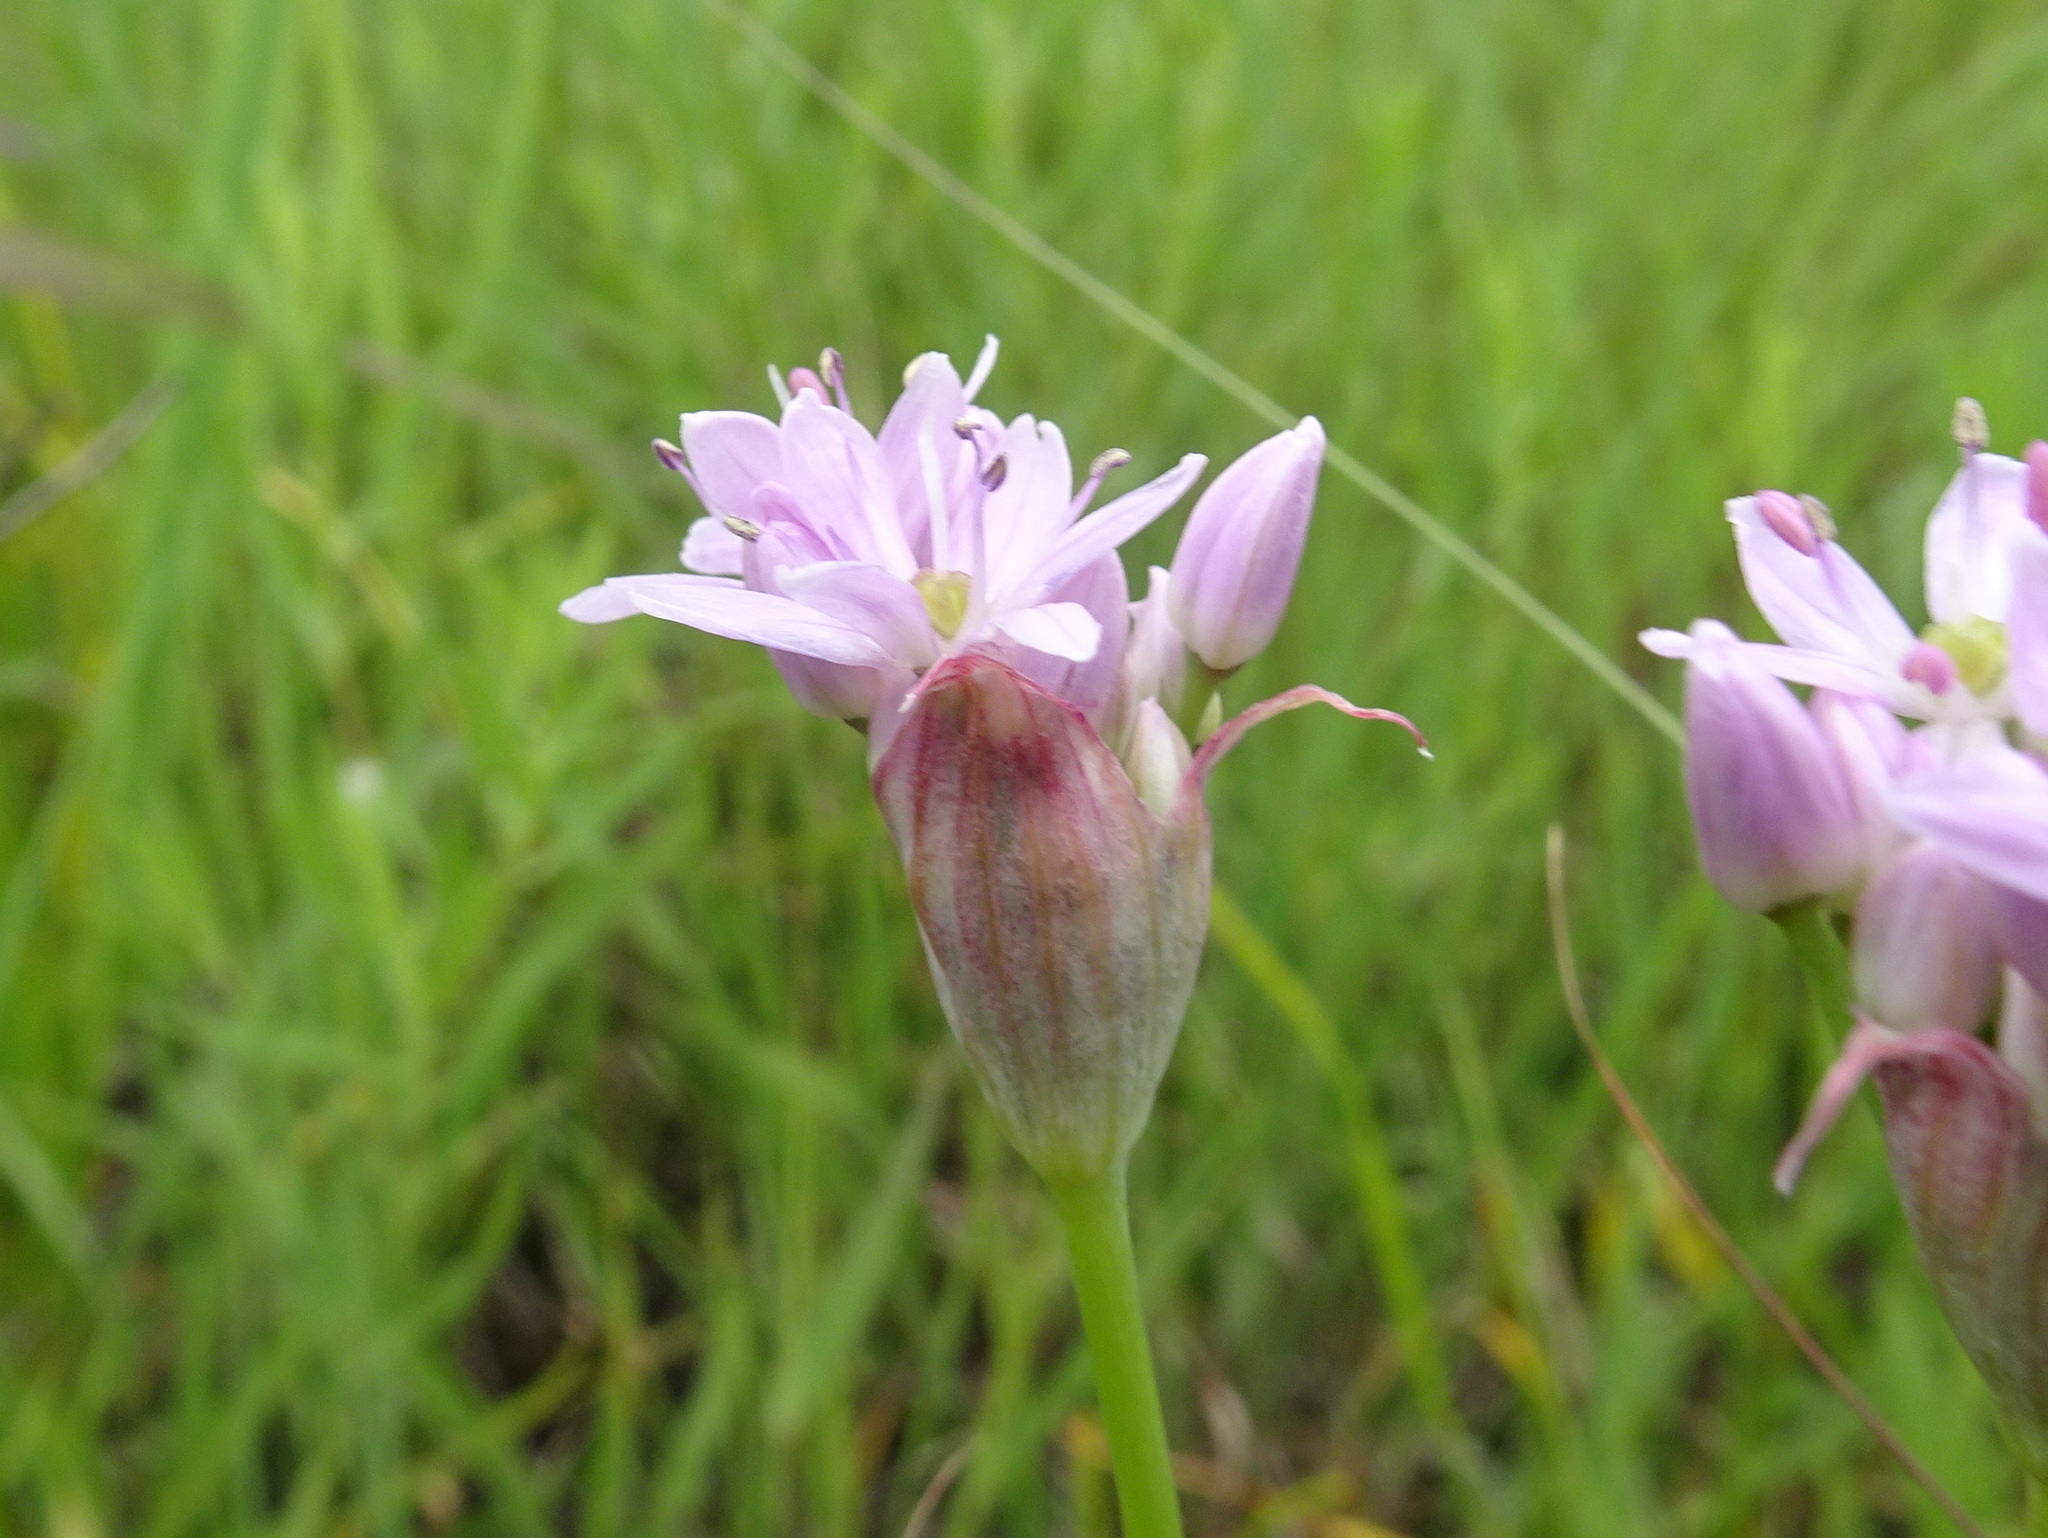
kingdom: Plantae
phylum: Tracheophyta
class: Liliopsida
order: Asparagales
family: Amaryllidaceae
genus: Allium
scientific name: Allium canadense
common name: Meadow garlic
